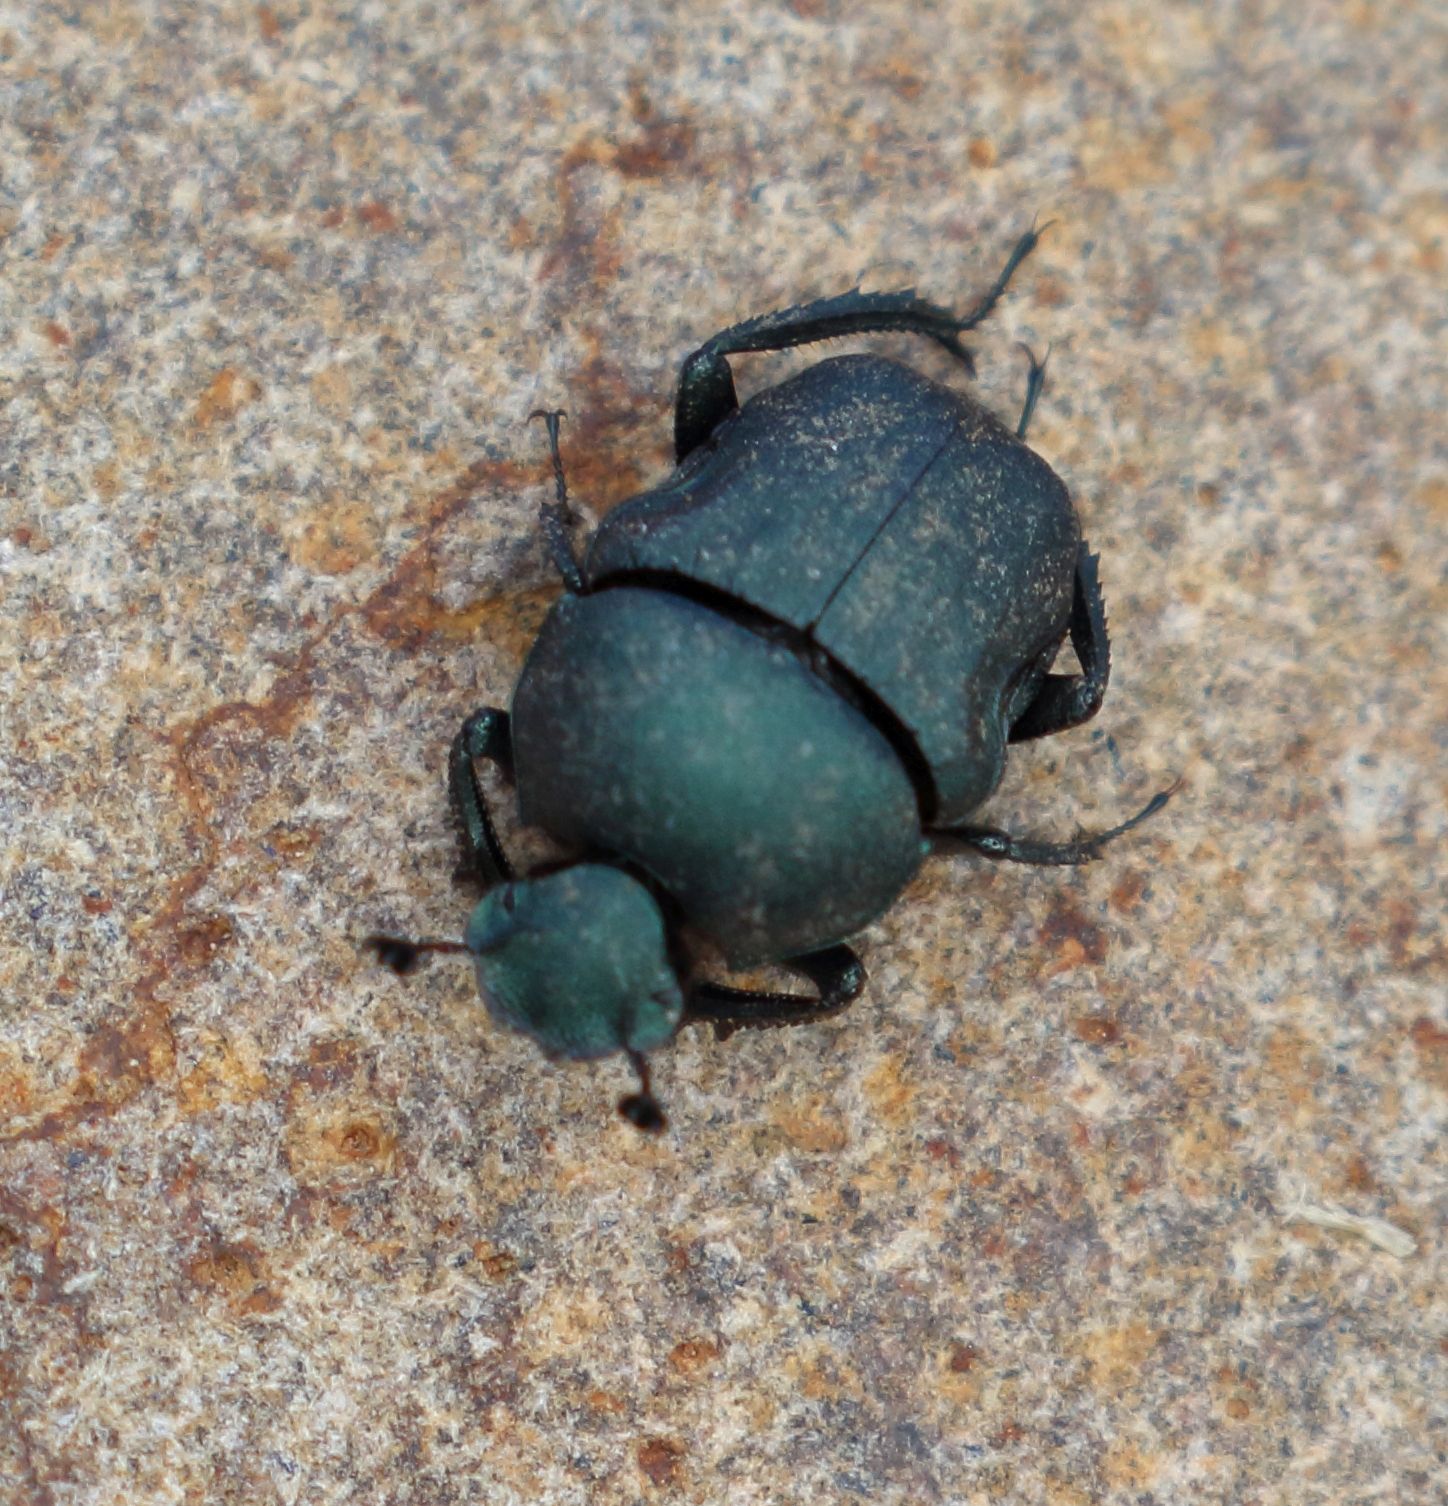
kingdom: Animalia
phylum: Arthropoda
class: Insecta
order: Coleoptera
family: Scarabaeidae
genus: Gymnopleurus
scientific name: Gymnopleurus humanus
